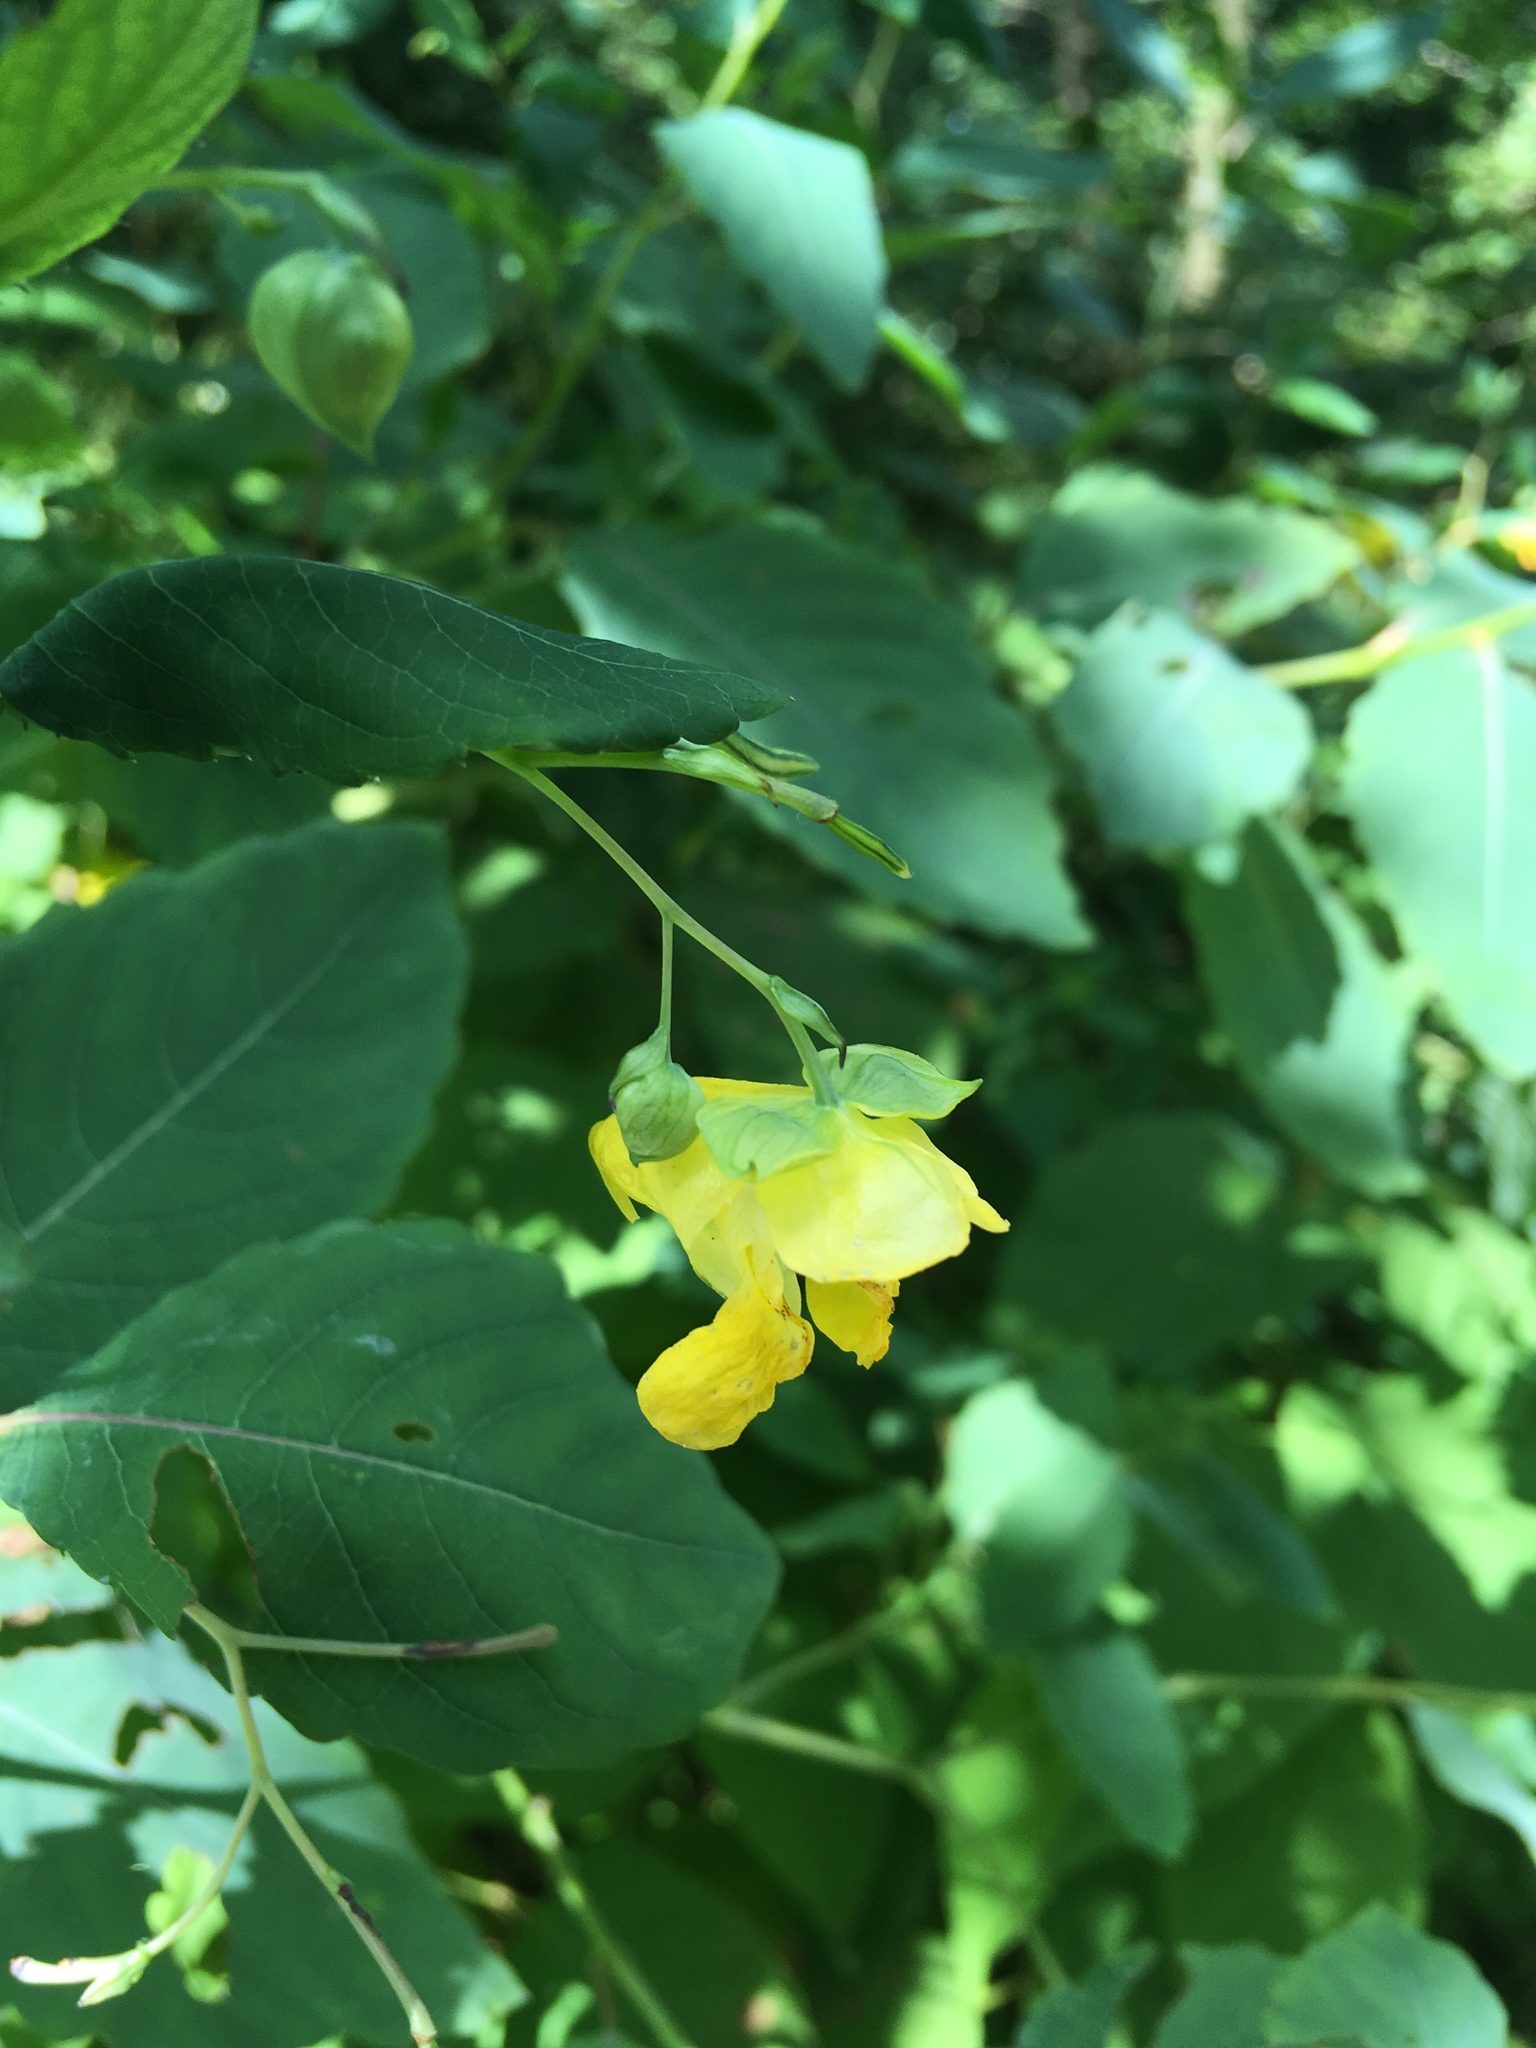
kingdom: Plantae
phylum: Tracheophyta
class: Magnoliopsida
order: Ericales
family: Balsaminaceae
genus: Impatiens
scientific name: Impatiens pallida
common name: Pale snapweed
